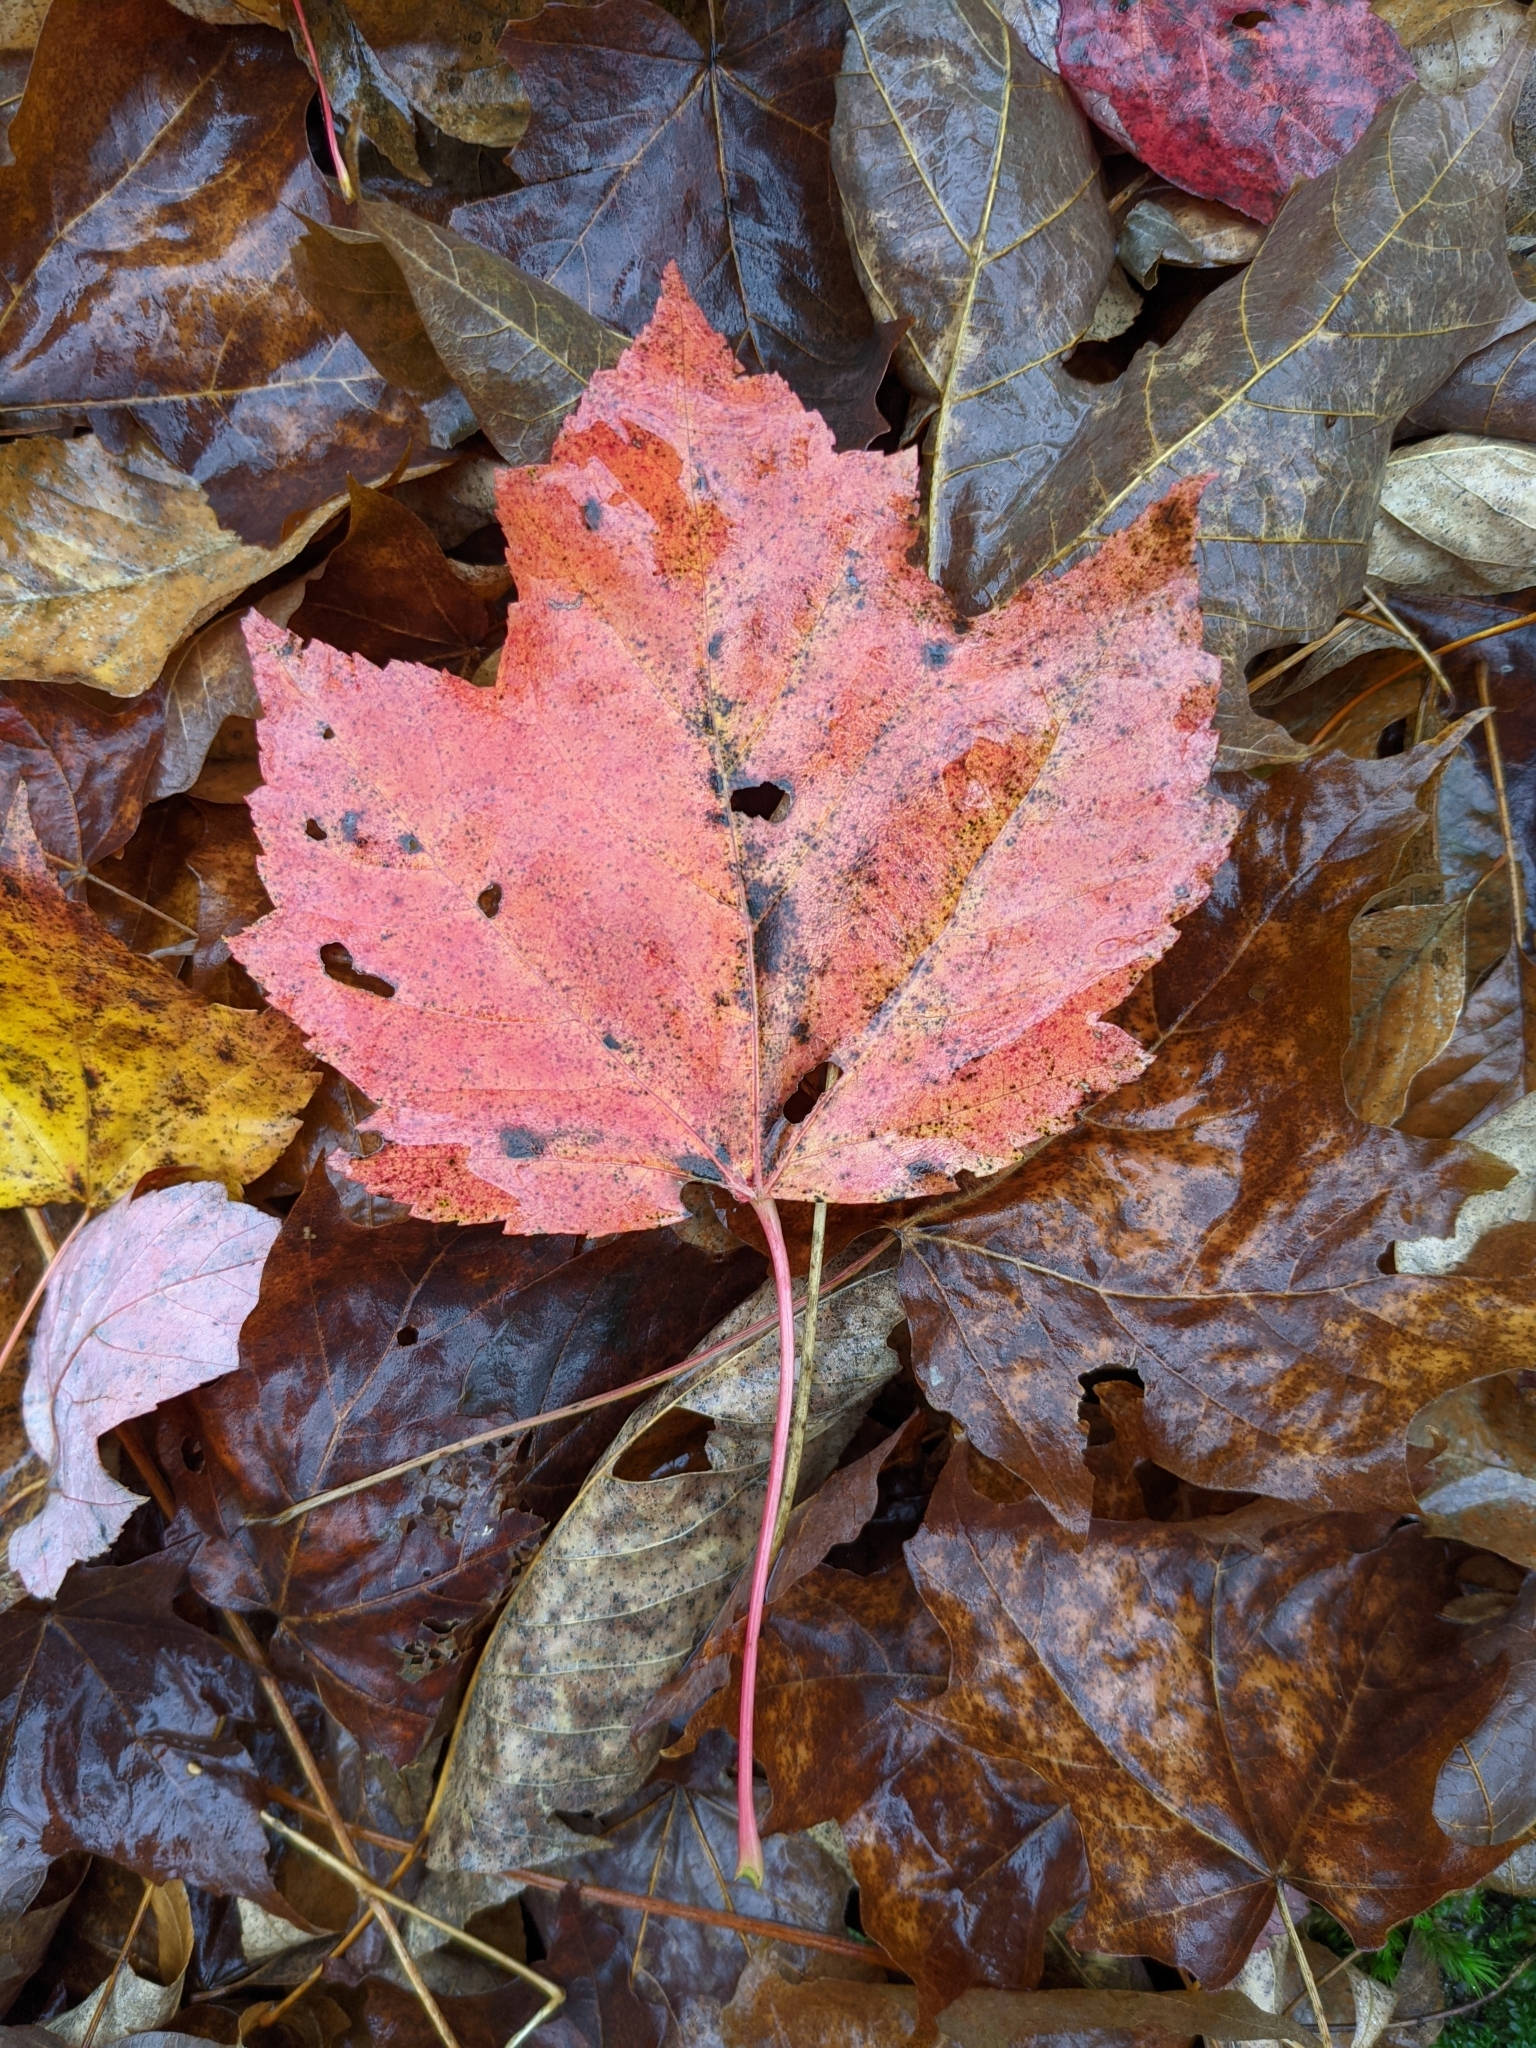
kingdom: Plantae
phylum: Tracheophyta
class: Magnoliopsida
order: Sapindales
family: Sapindaceae
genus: Acer
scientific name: Acer rubrum
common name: Red maple
